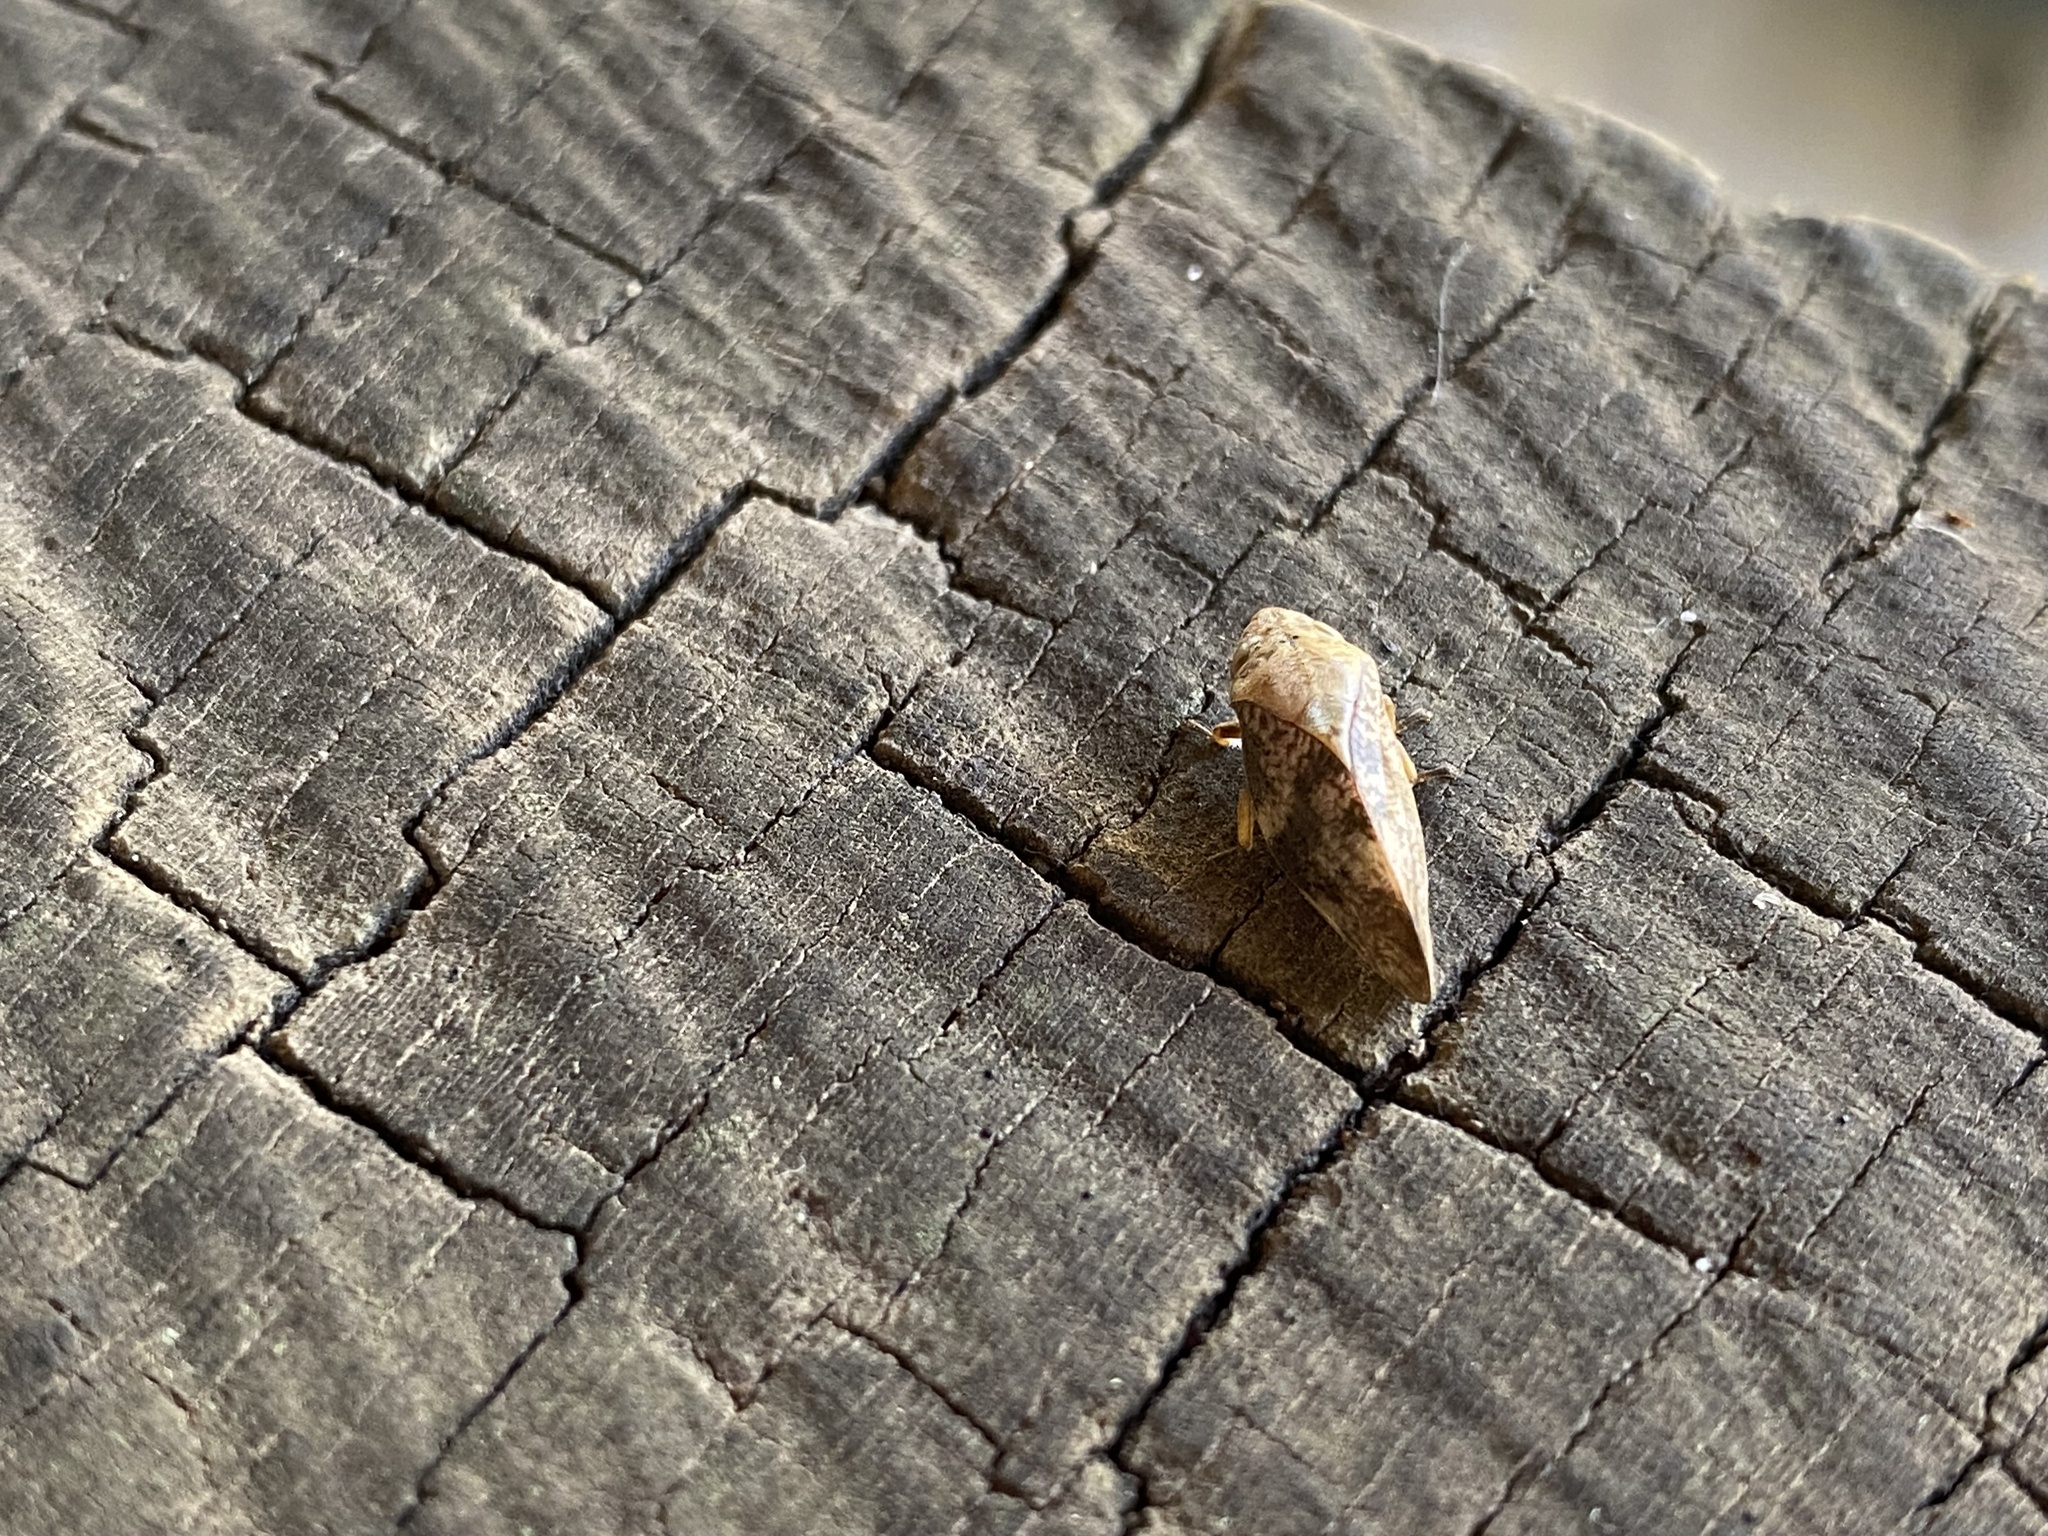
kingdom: Animalia
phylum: Arthropoda
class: Insecta
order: Hemiptera
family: Aphrophoridae
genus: Cephisus
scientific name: Cephisus siccifolius
